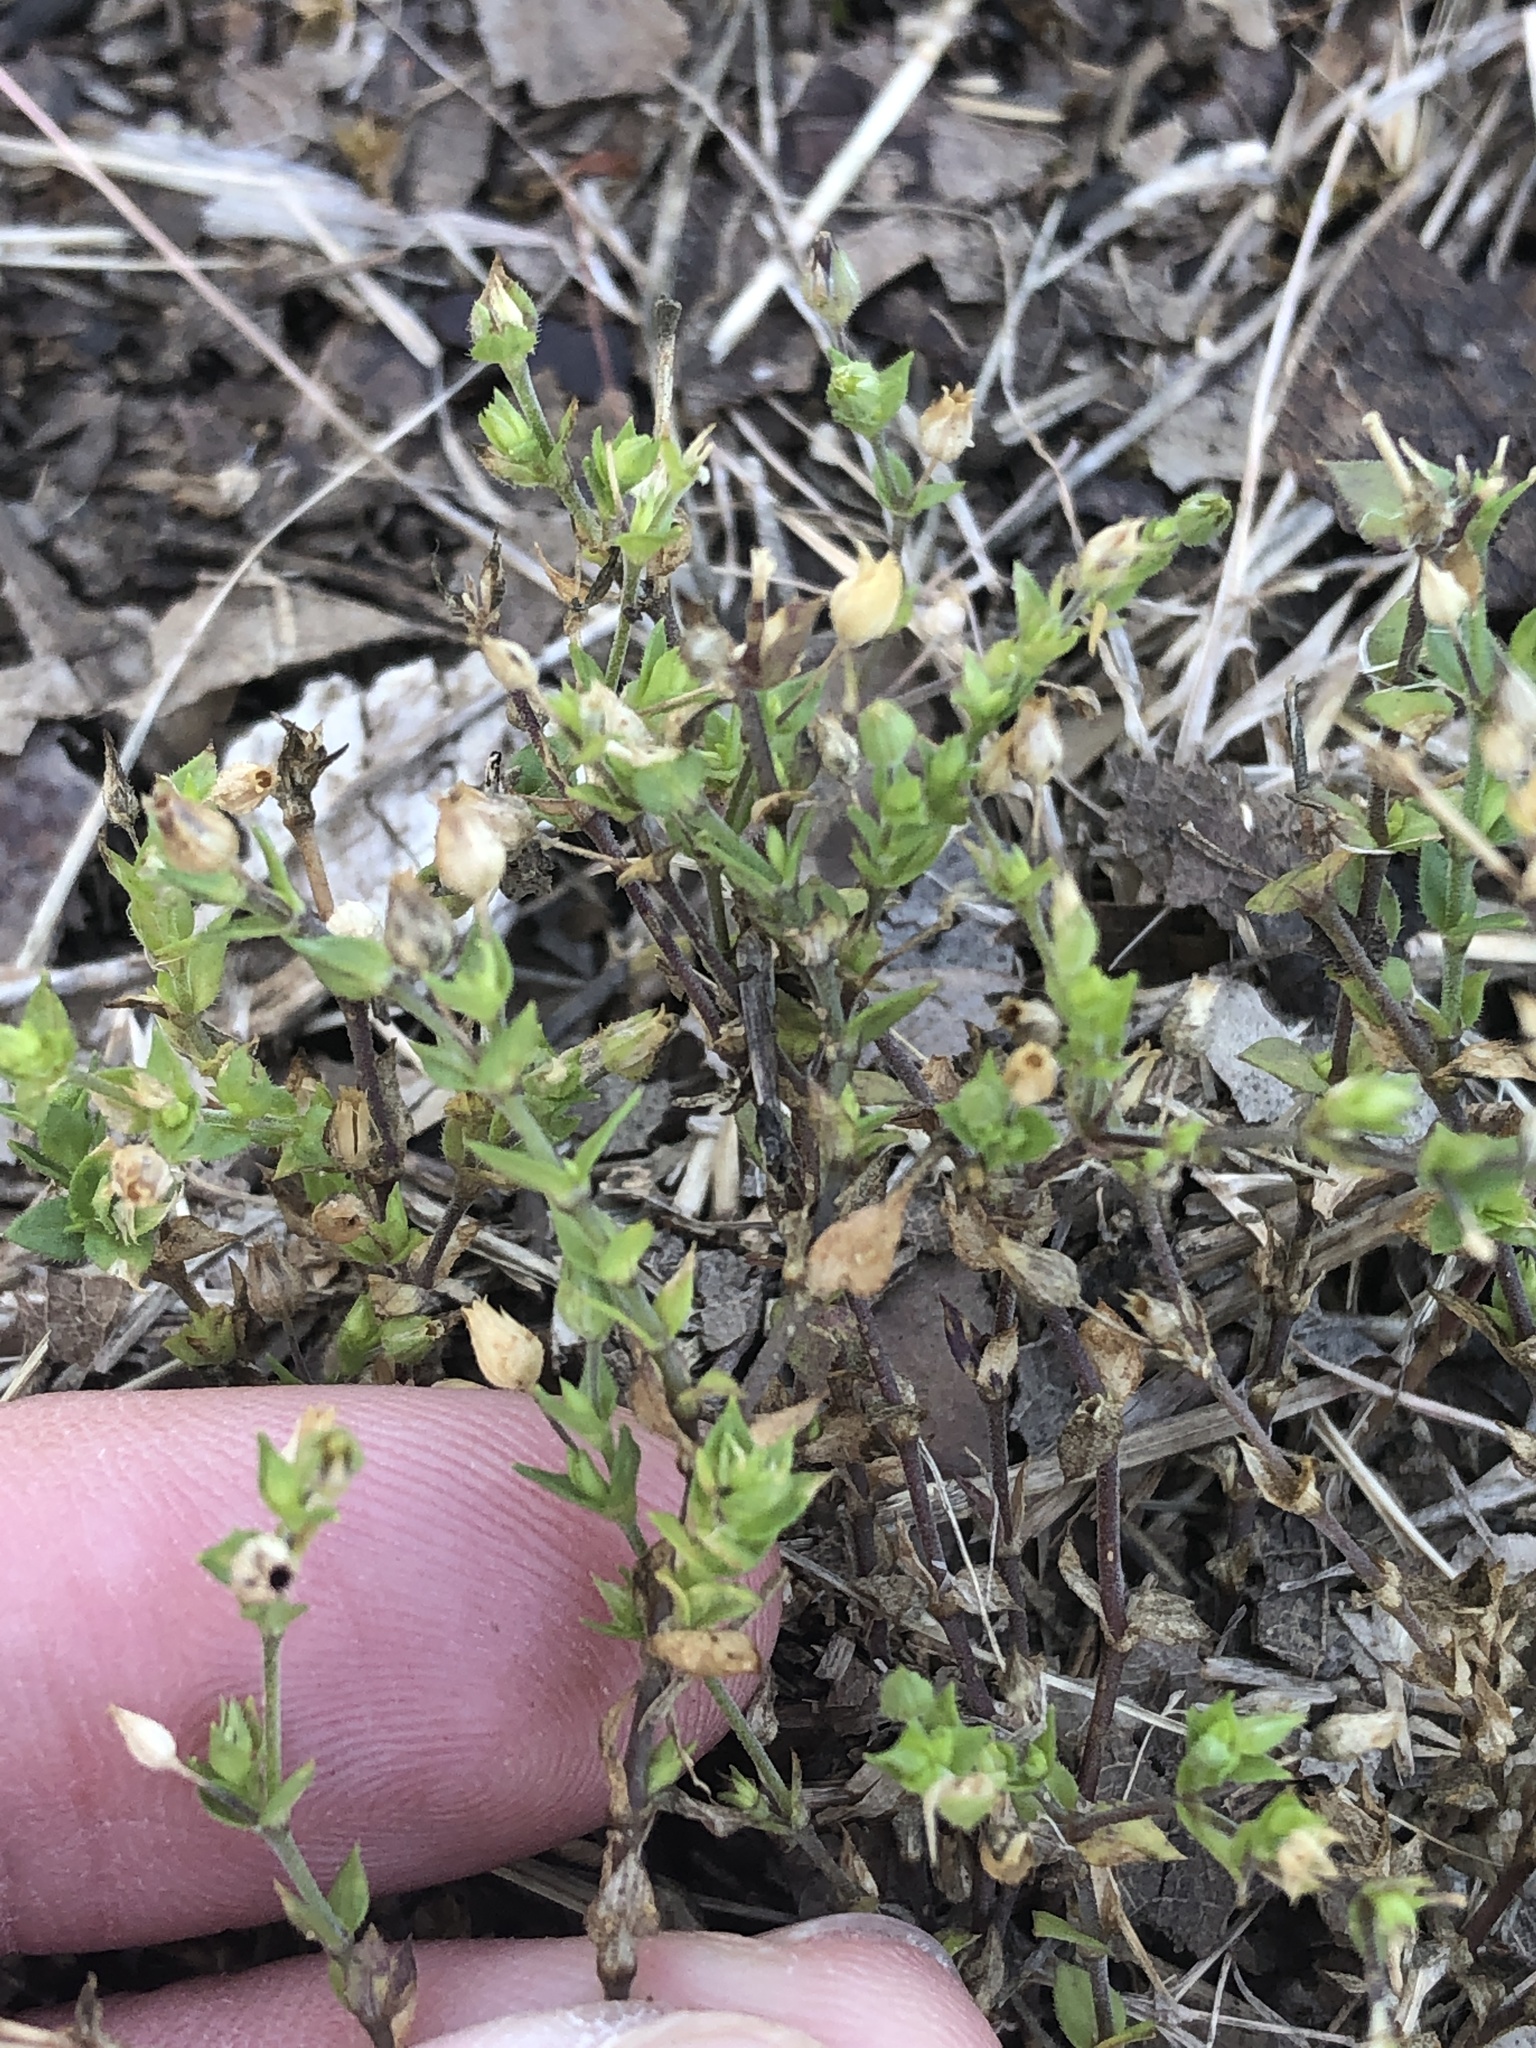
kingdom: Plantae
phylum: Tracheophyta
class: Magnoliopsida
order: Caryophyllales
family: Caryophyllaceae
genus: Arenaria
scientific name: Arenaria serpyllifolia
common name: Thyme-leaved sandwort
